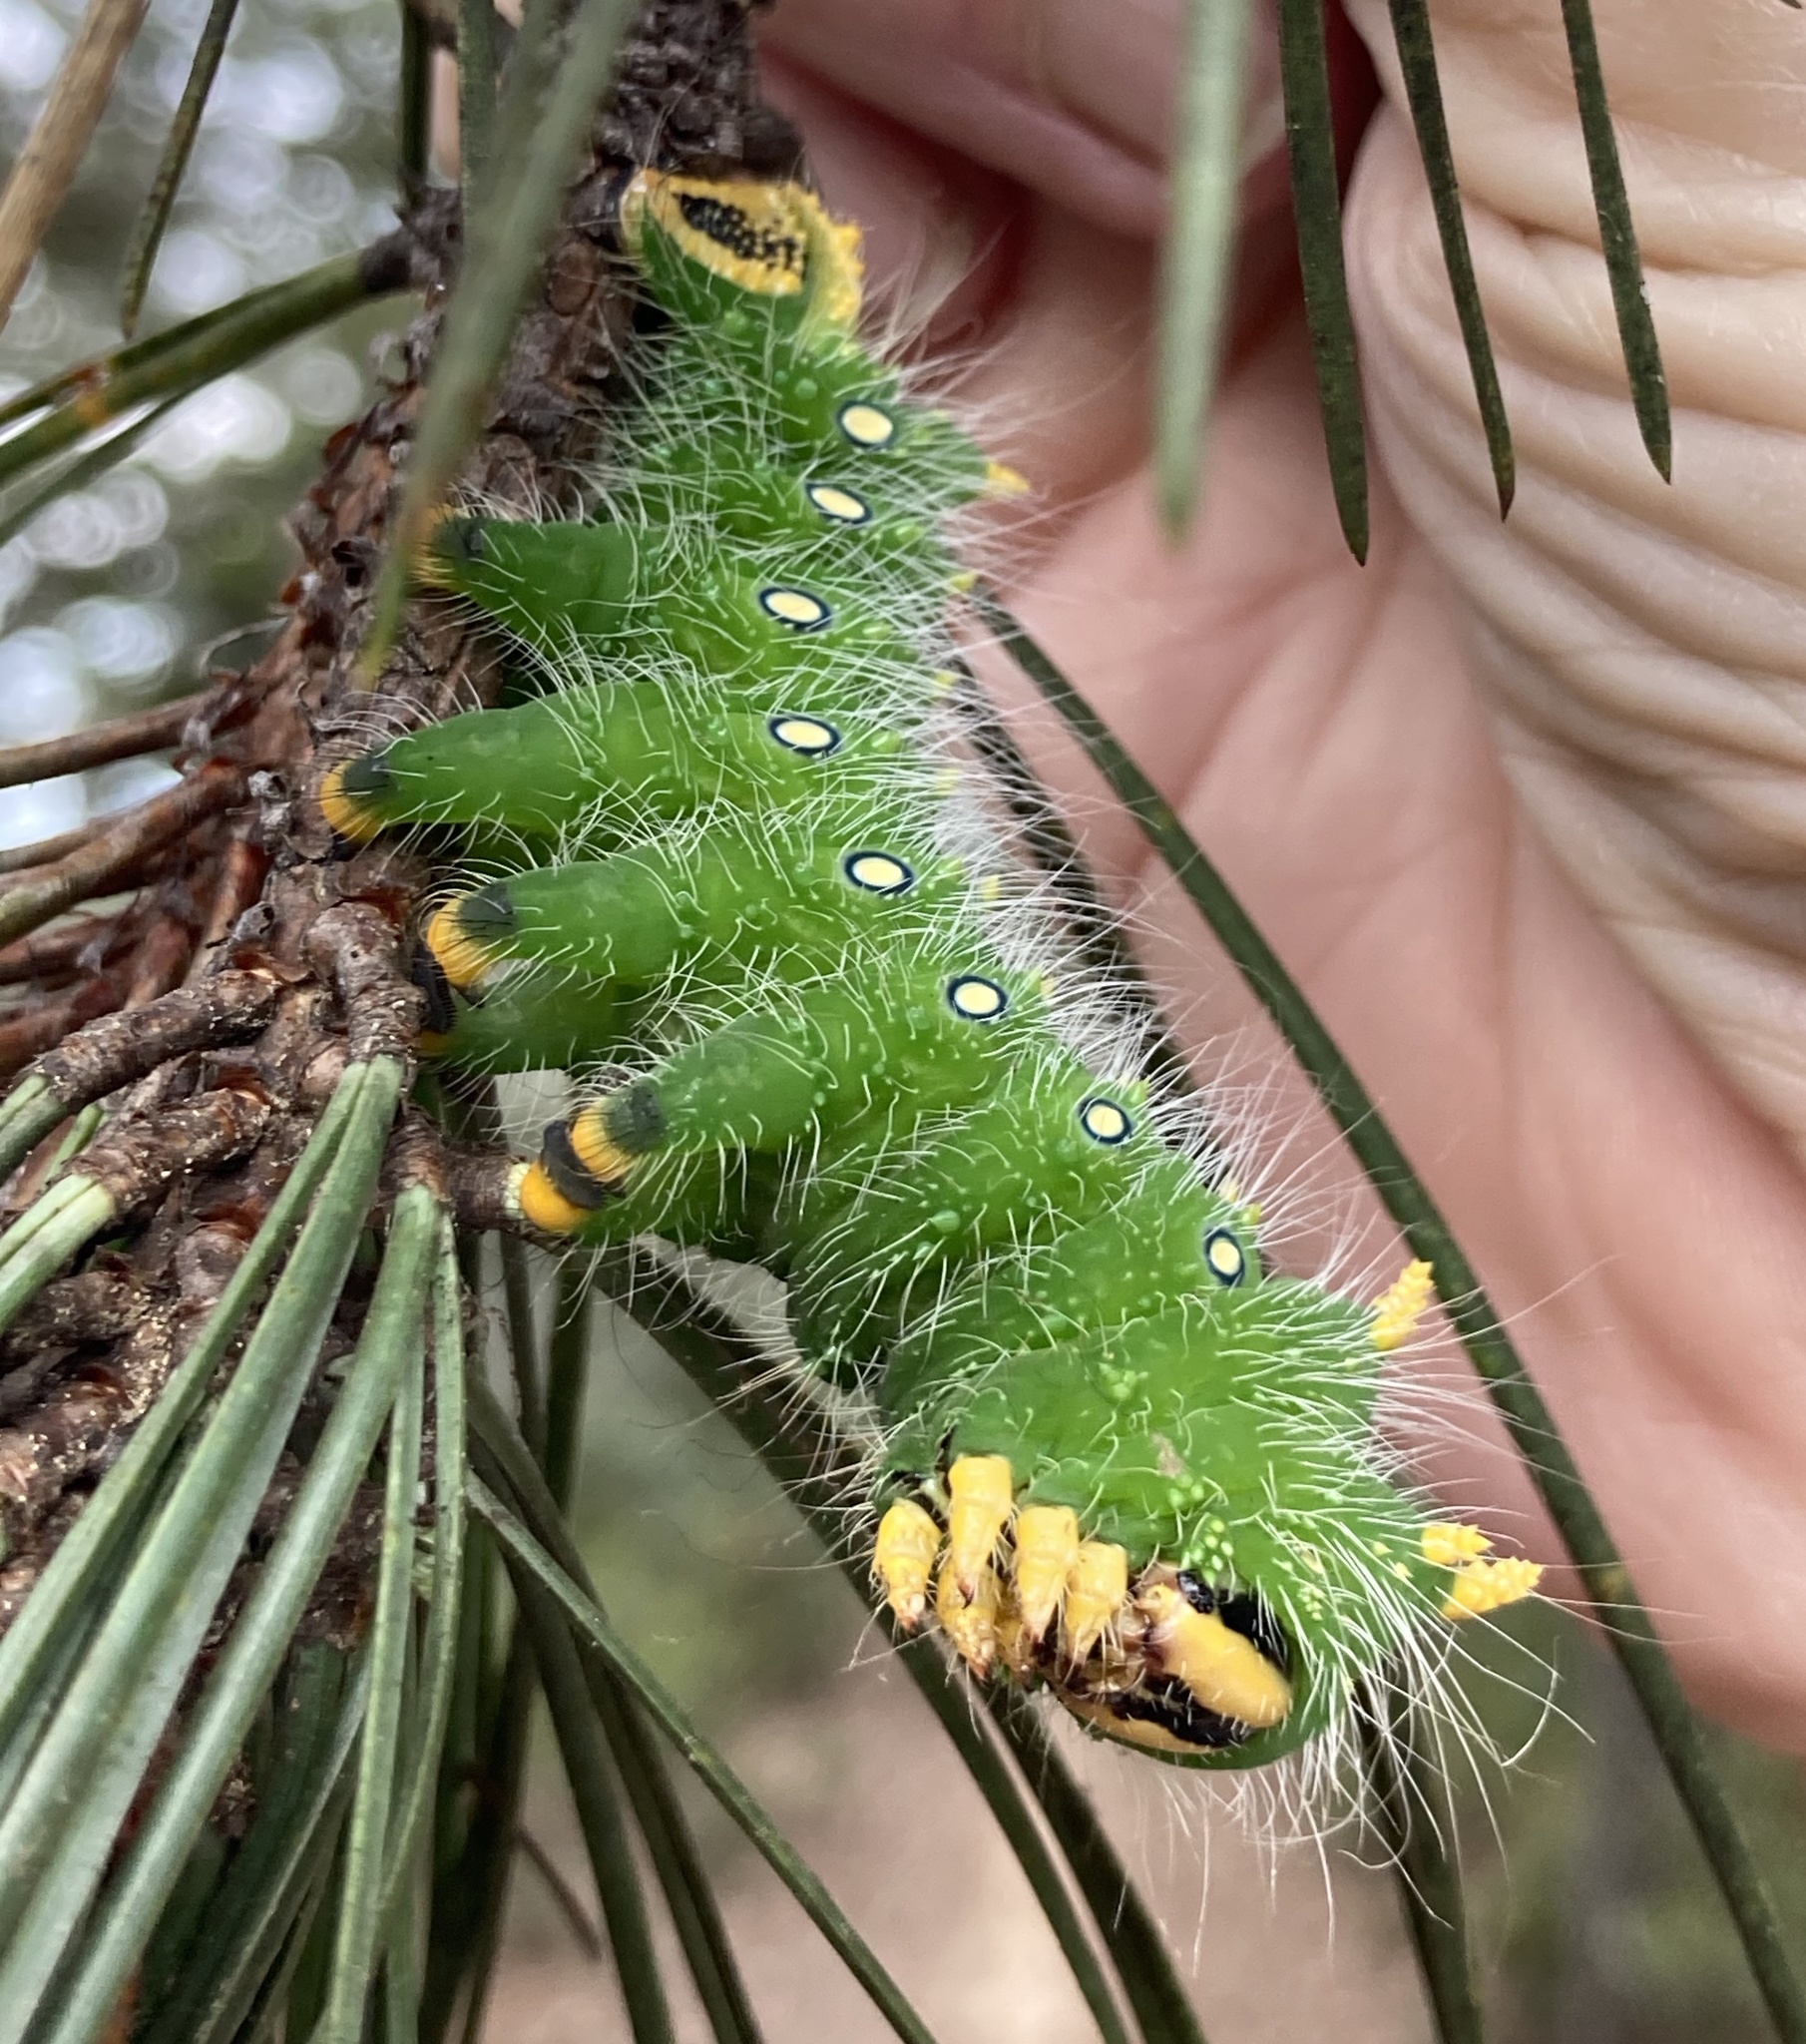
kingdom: Animalia
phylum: Arthropoda
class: Insecta
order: Lepidoptera
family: Saturniidae
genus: Eacles
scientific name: Eacles imperialis
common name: Imperial moth
